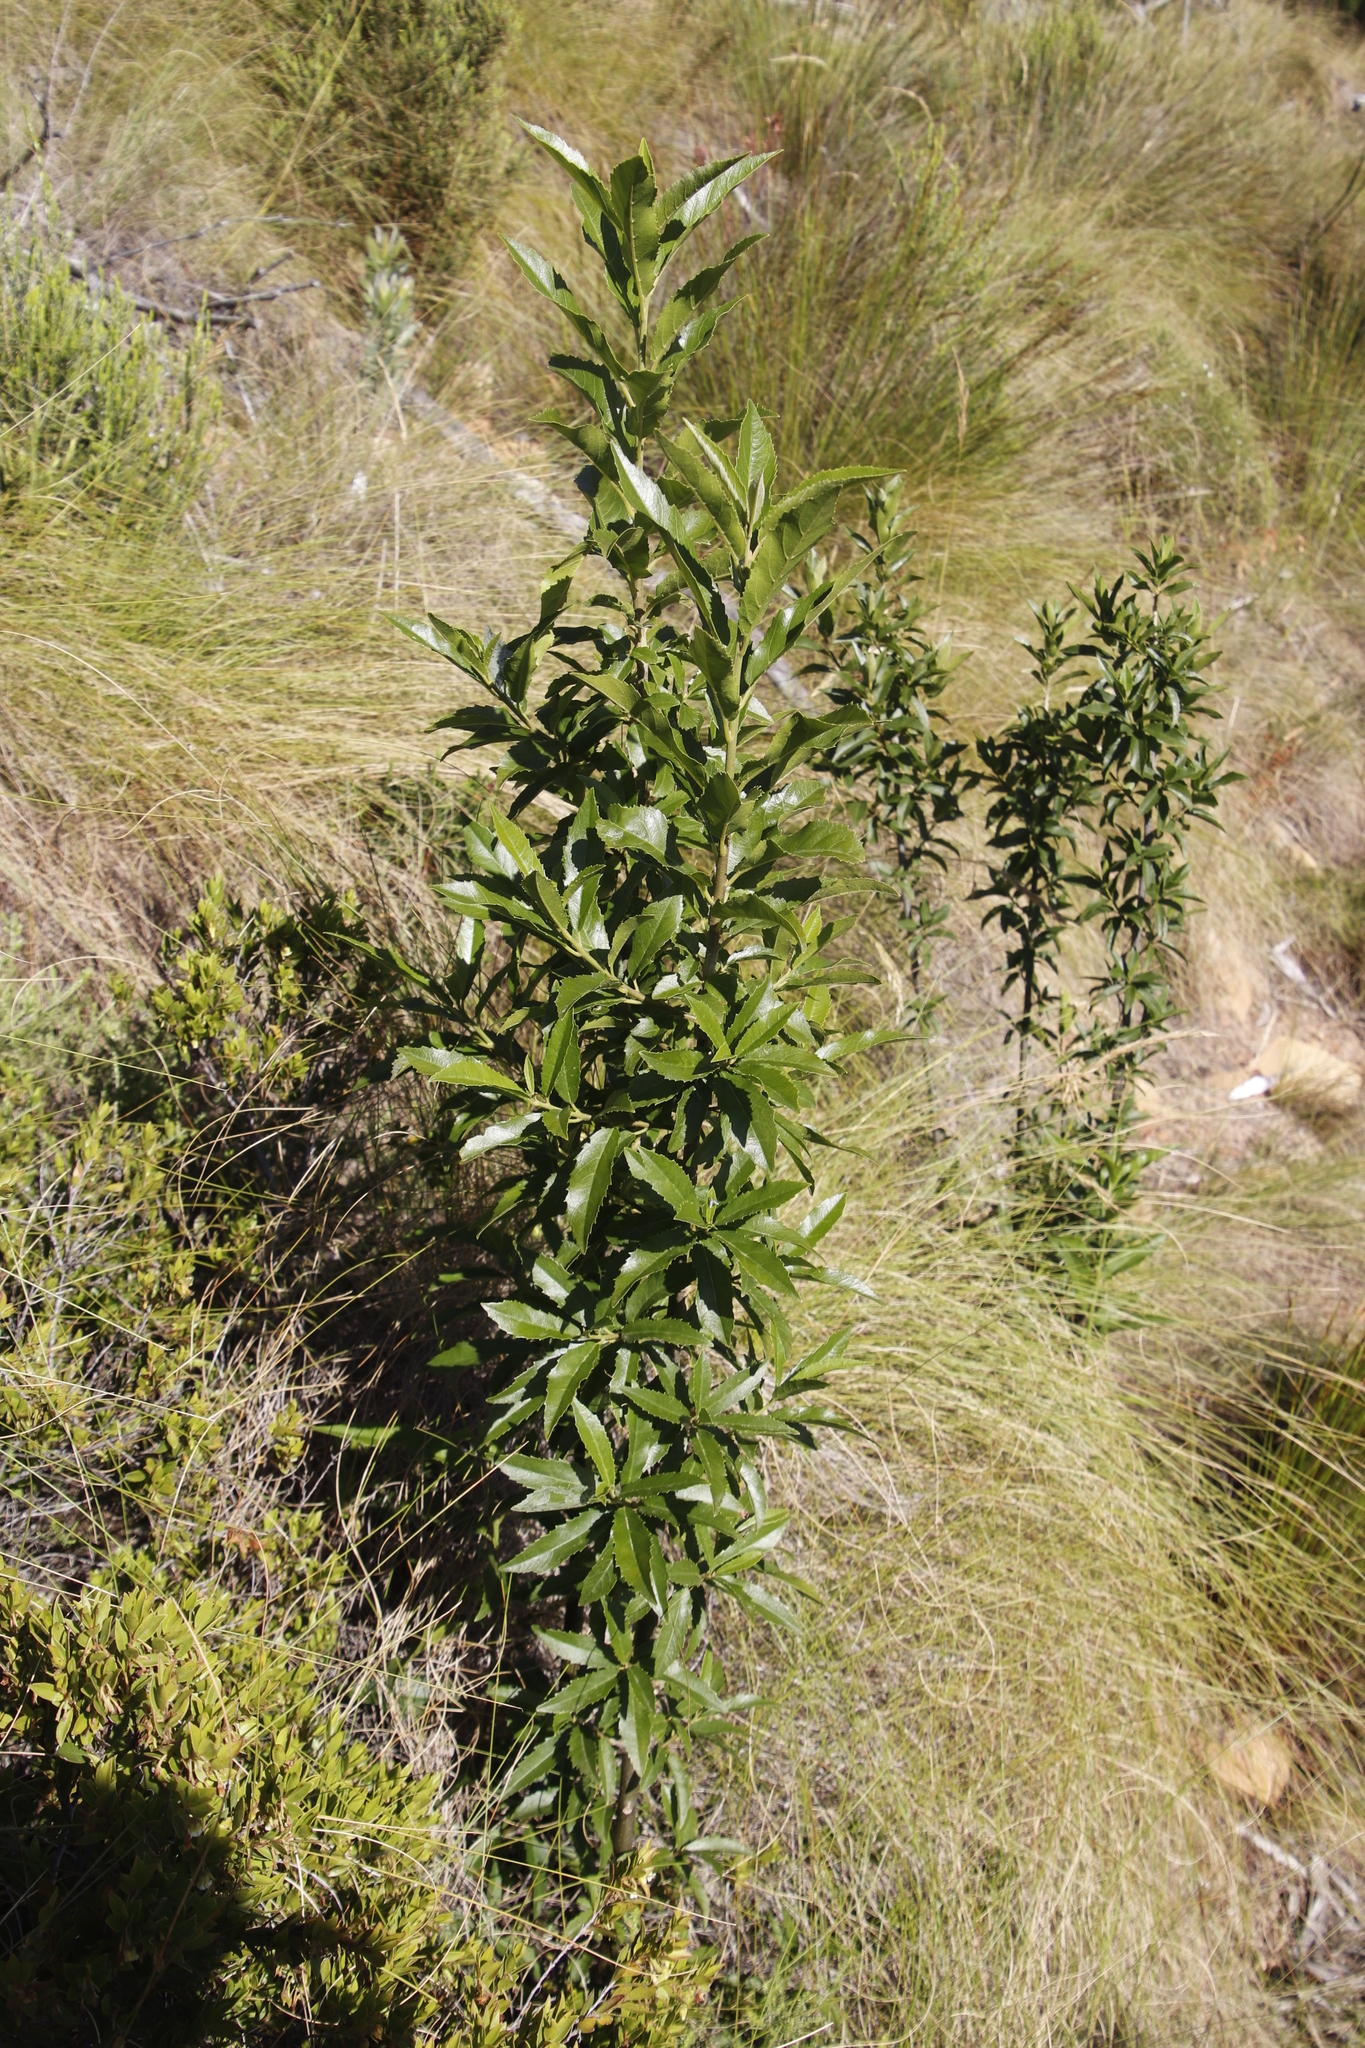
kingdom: Plantae
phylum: Tracheophyta
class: Magnoliopsida
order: Malpighiales
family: Achariaceae
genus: Kiggelaria
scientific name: Kiggelaria africana
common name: Wild peach
